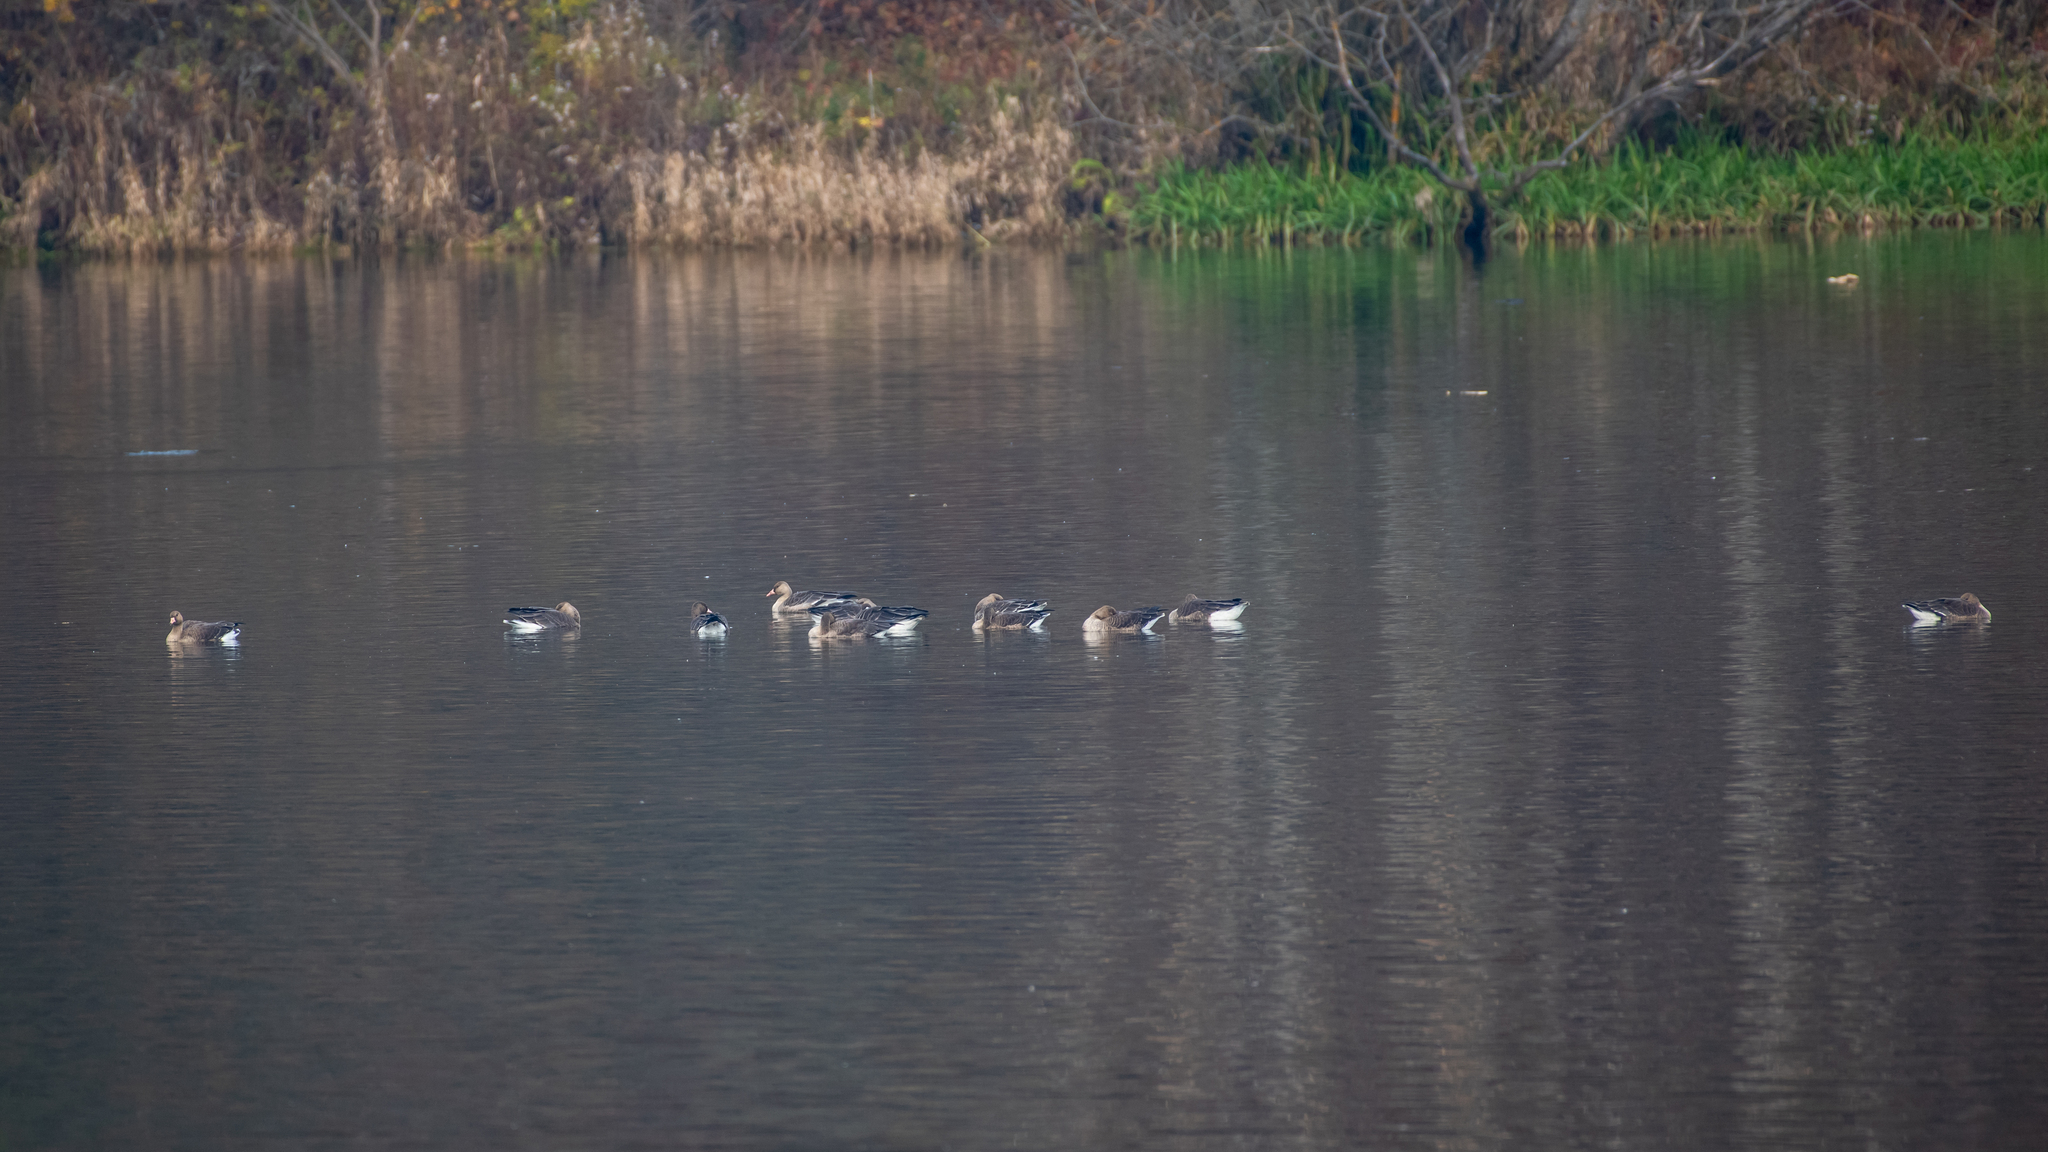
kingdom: Animalia
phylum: Chordata
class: Aves
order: Anseriformes
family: Anatidae
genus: Anser
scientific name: Anser albifrons
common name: Greater white-fronted goose
